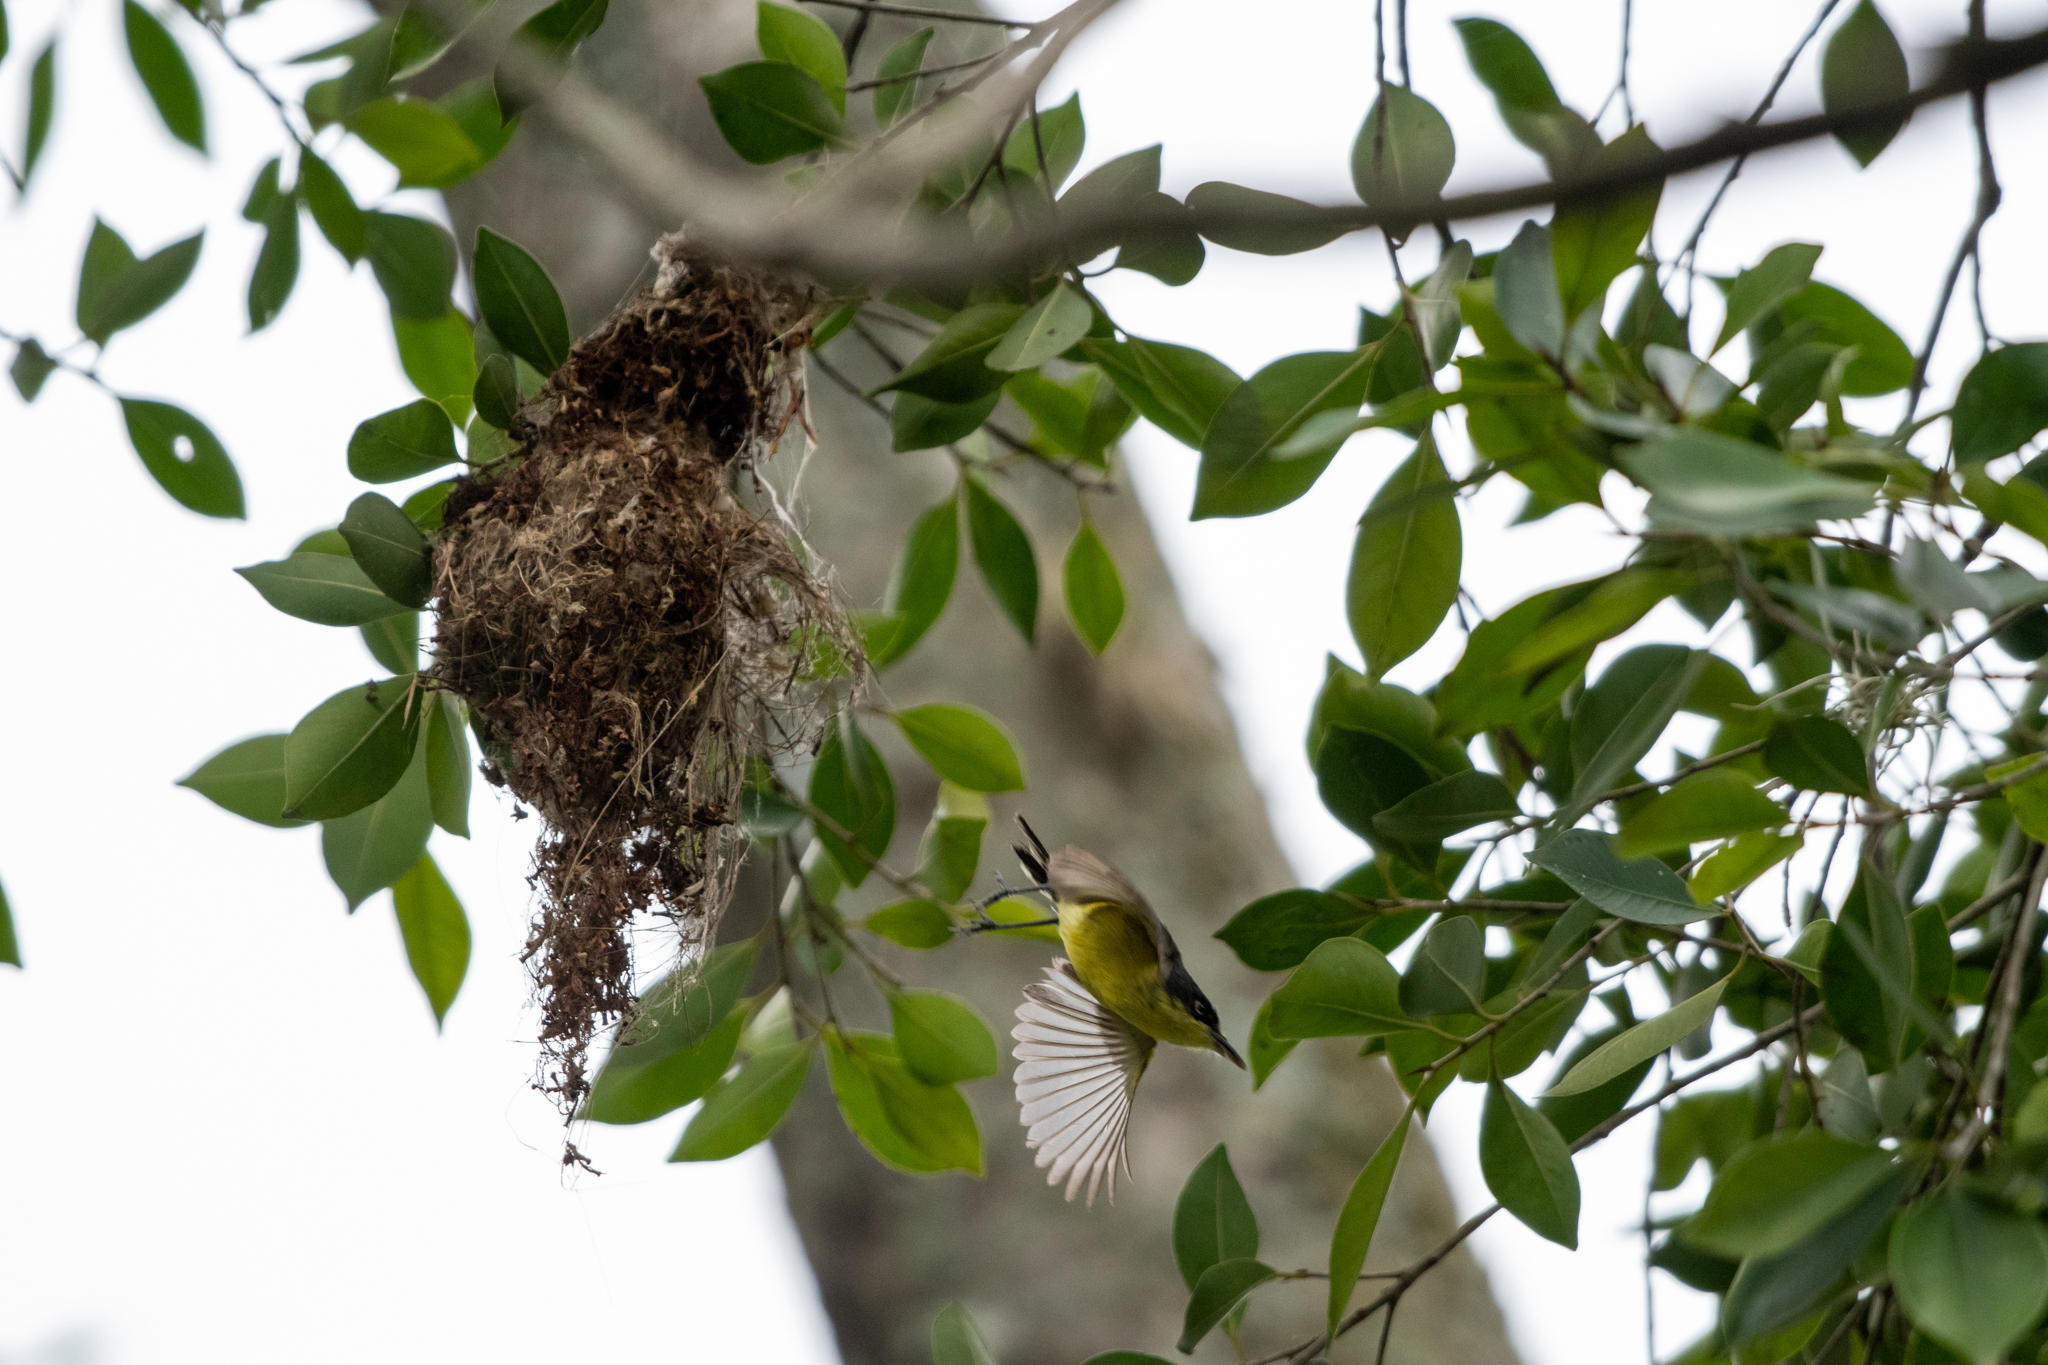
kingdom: Animalia
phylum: Chordata
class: Aves
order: Passeriformes
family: Tyrannidae
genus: Todirostrum
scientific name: Todirostrum cinereum
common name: Common tody-flycatcher
